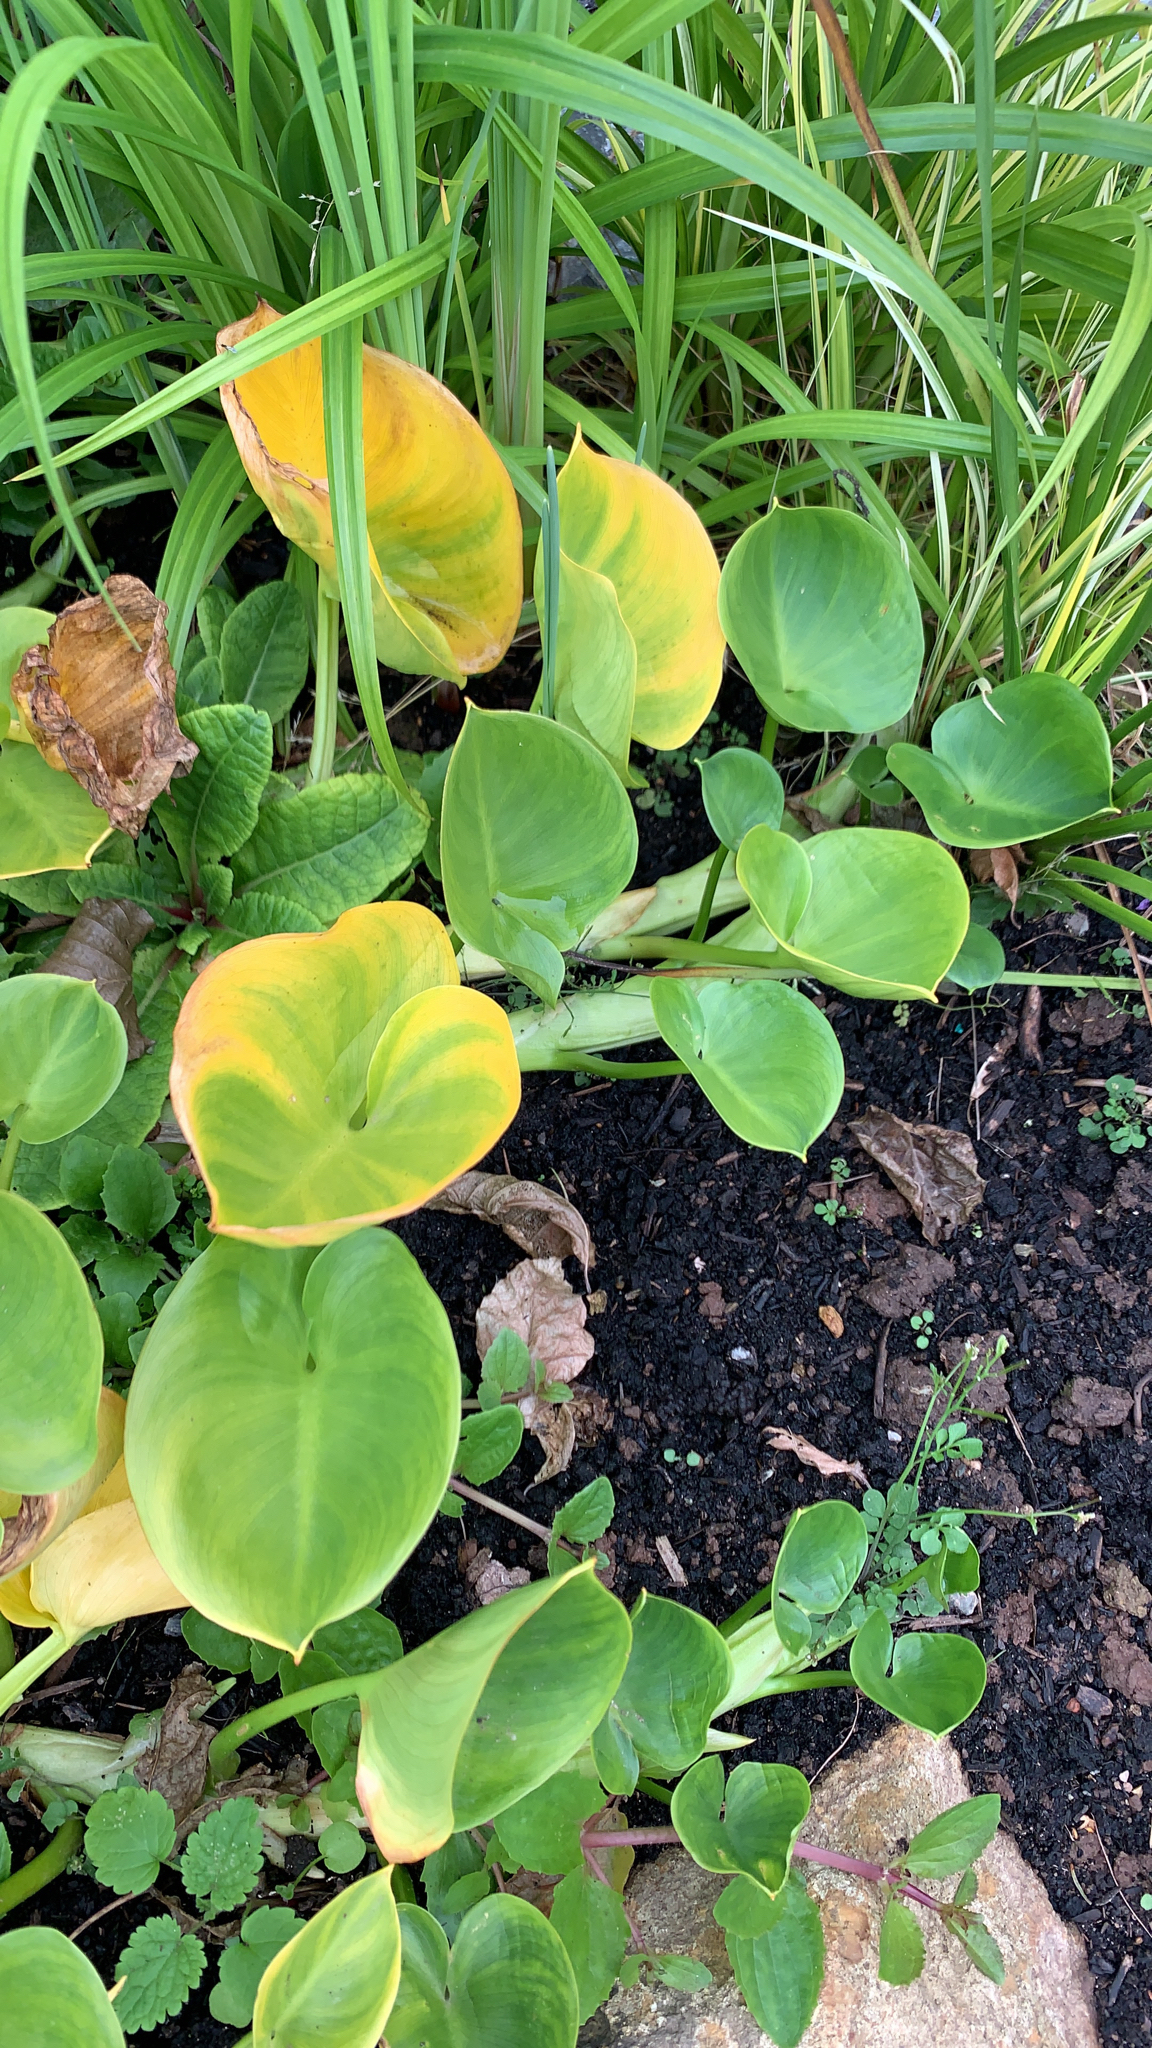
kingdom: Plantae
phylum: Tracheophyta
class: Liliopsida
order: Alismatales
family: Araceae
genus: Calla
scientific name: Calla palustris
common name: Bog arum
